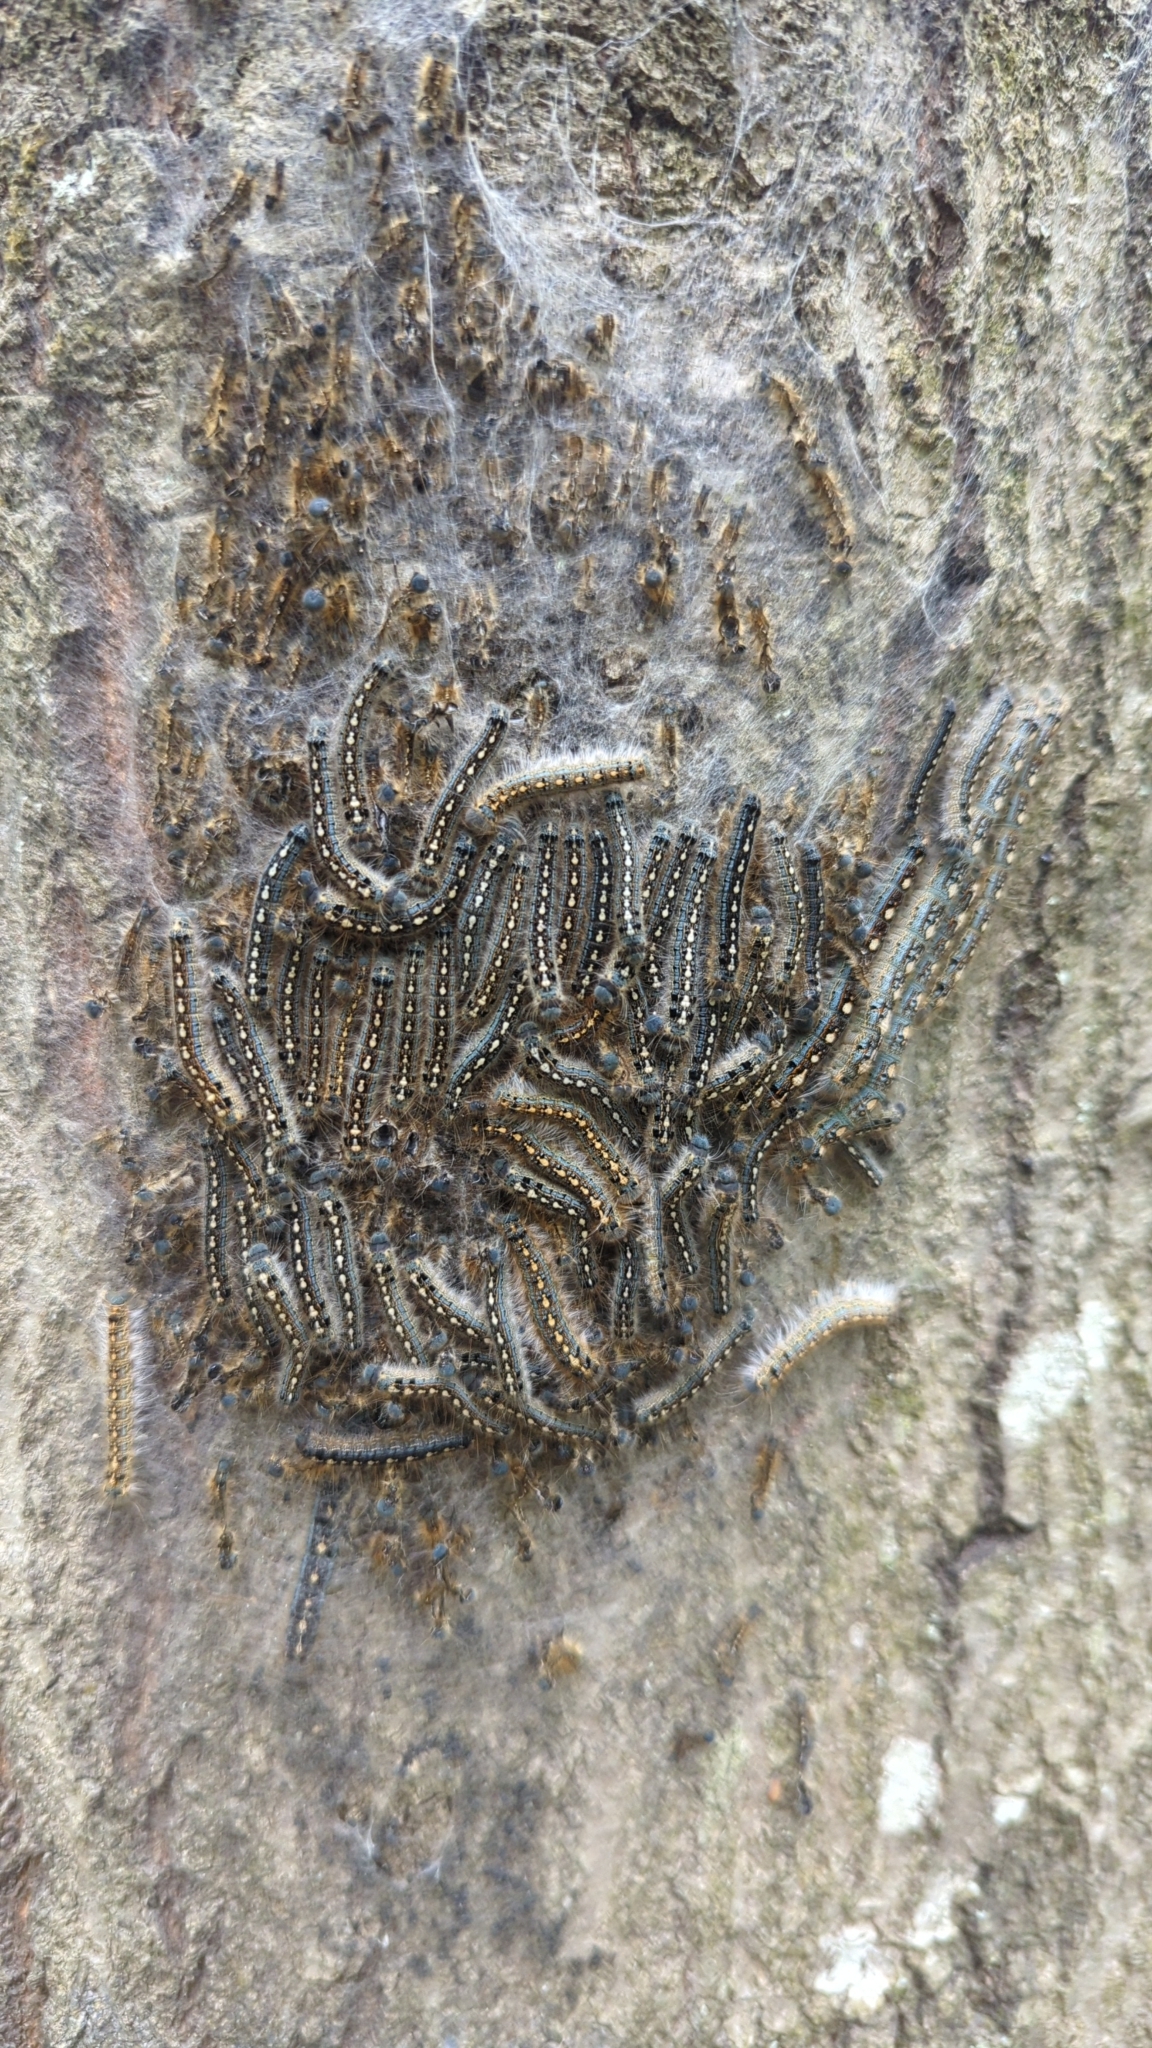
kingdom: Animalia
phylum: Arthropoda
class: Insecta
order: Lepidoptera
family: Lasiocampidae
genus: Malacosoma
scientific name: Malacosoma disstria
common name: Forest tent caterpillar
